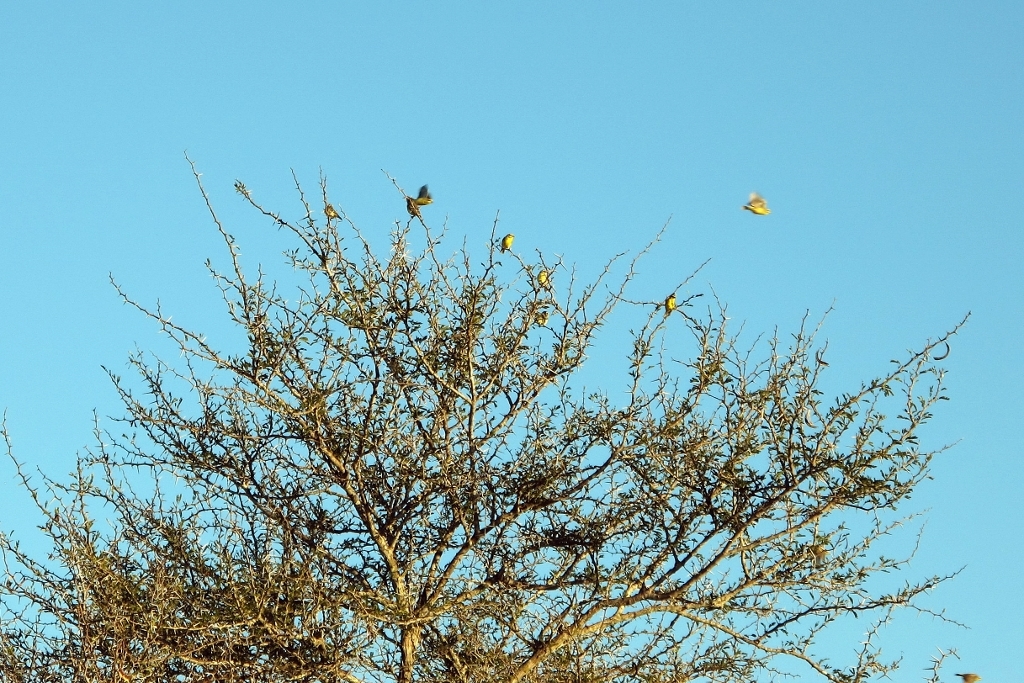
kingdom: Animalia
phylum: Chordata
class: Aves
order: Passeriformes
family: Fringillidae
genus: Crithagra
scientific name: Crithagra mozambica
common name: Yellow-fronted canary
